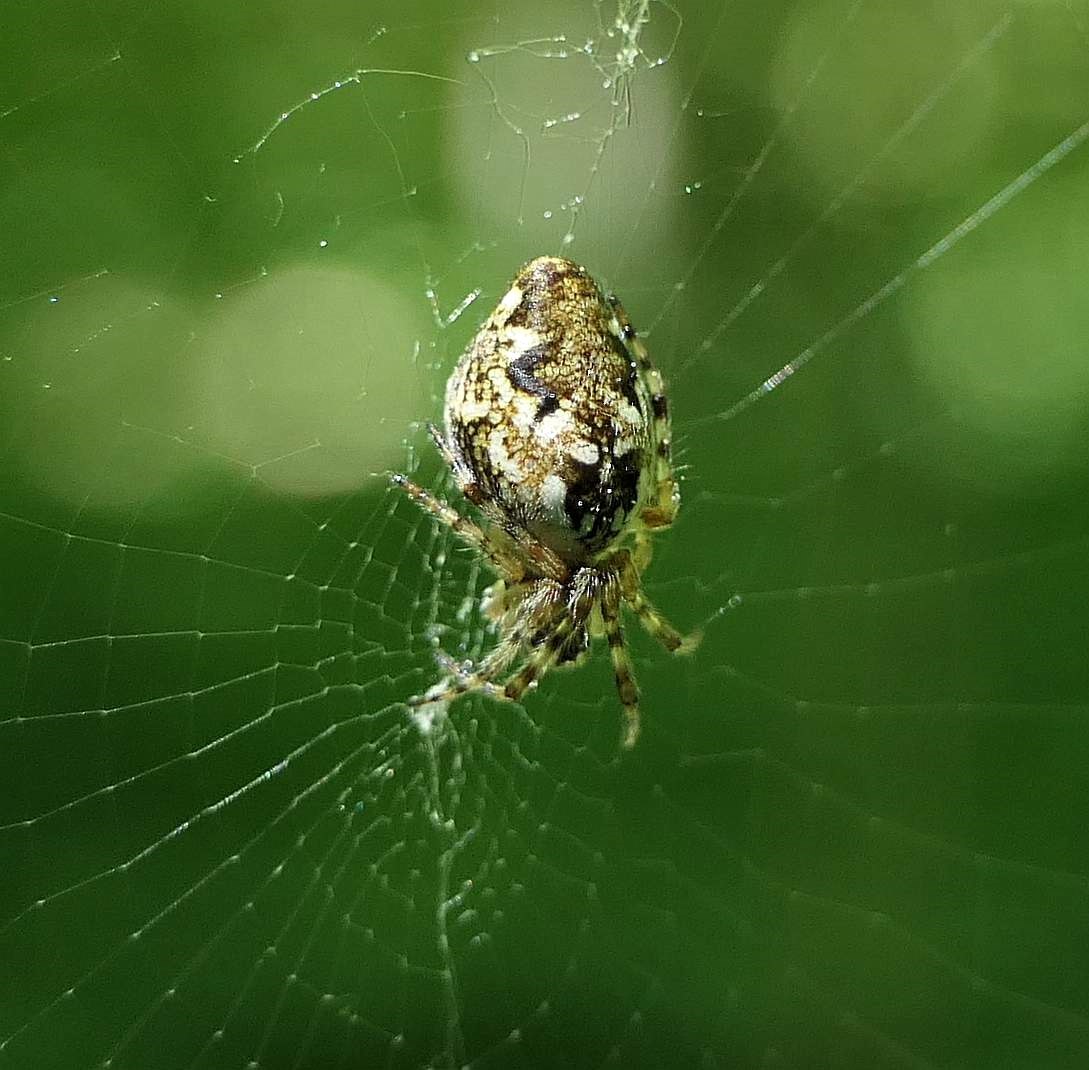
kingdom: Animalia
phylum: Arthropoda
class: Arachnida
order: Araneae
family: Araneidae
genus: Cyclosa
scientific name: Cyclosa conica
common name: Conical trashline orbweaver
